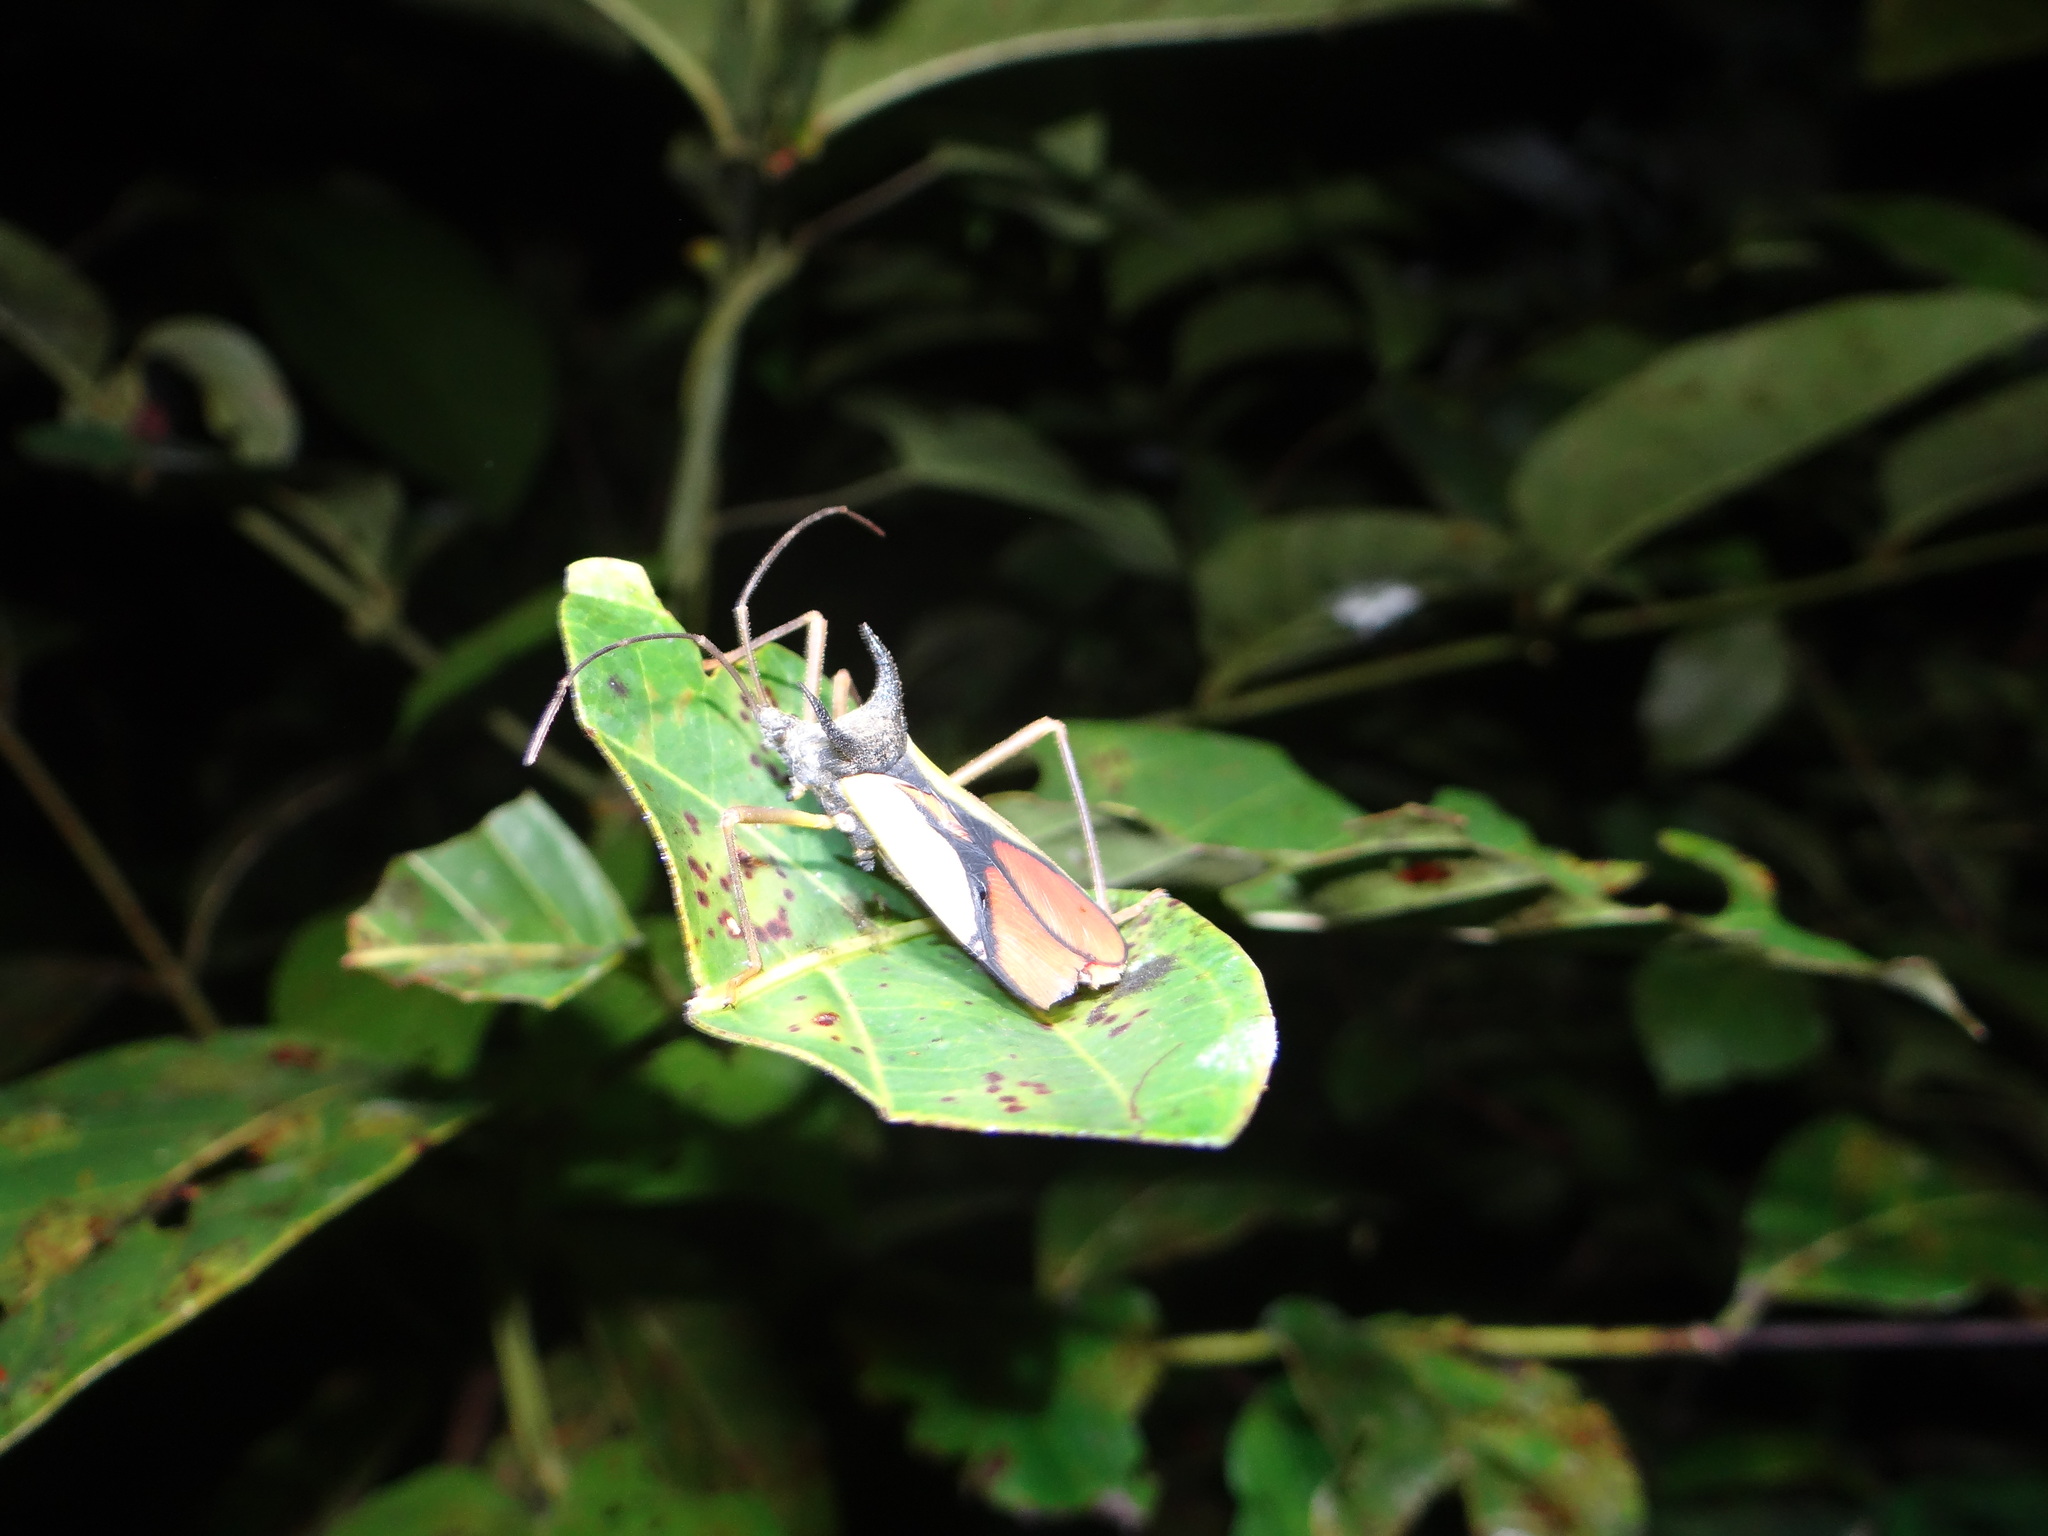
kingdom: Animalia
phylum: Arthropoda
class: Insecta
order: Hemiptera
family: Coreidae
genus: Euagona
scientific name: Euagona diana
